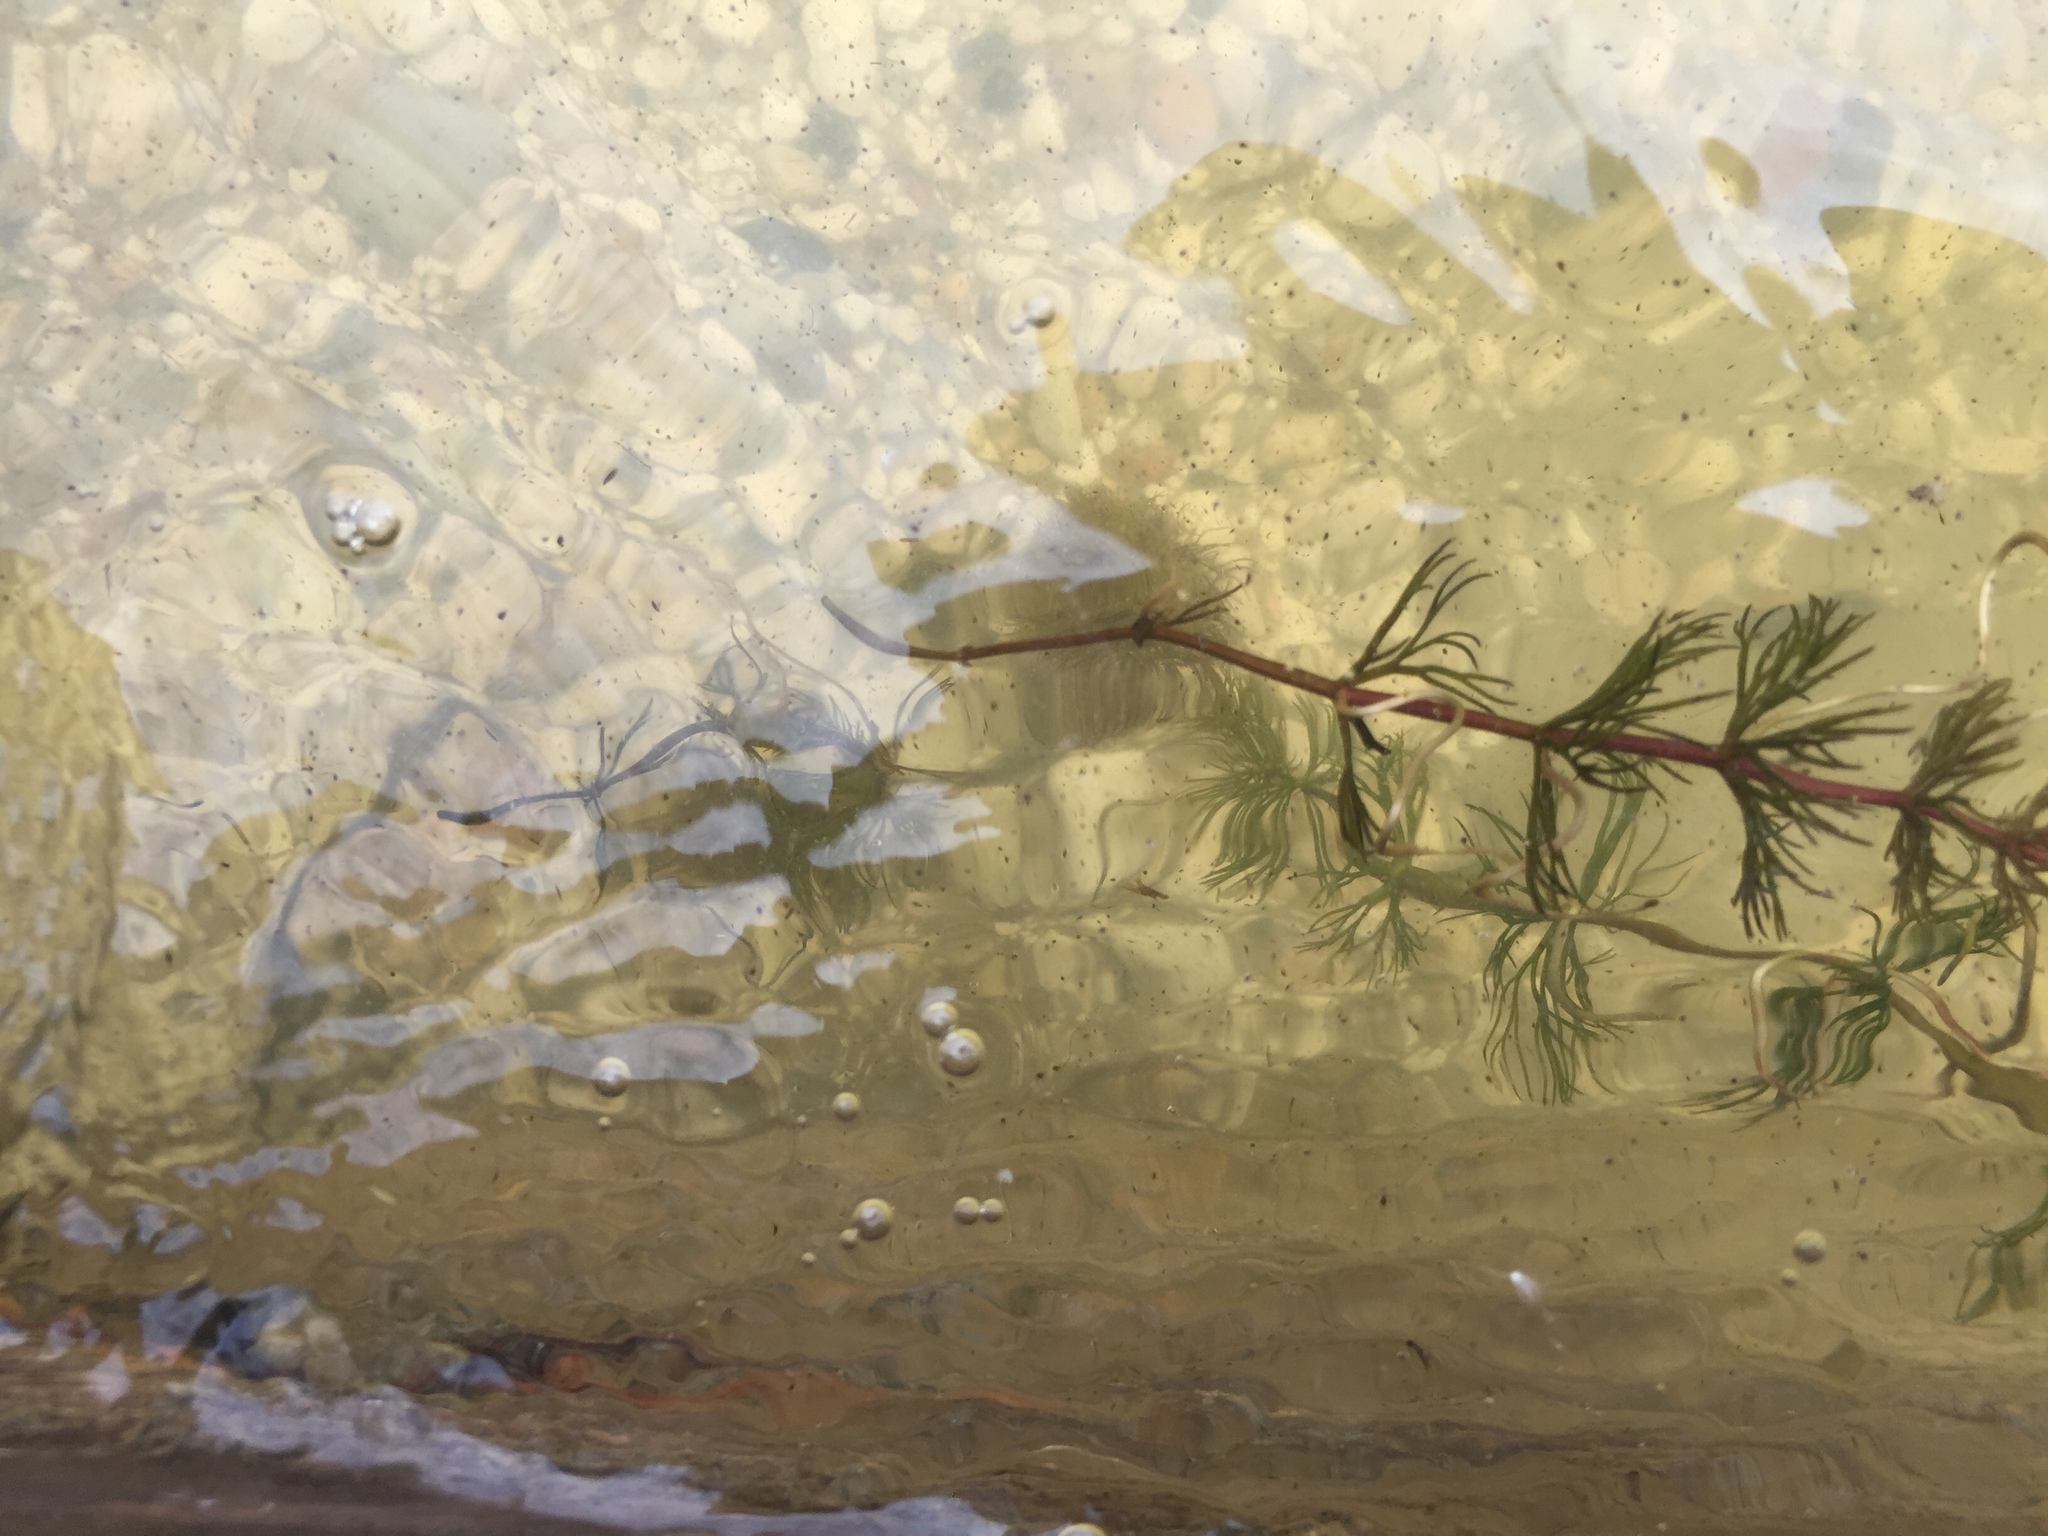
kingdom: Plantae
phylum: Tracheophyta
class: Magnoliopsida
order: Asterales
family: Asteraceae
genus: Bidens
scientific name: Bidens beckii
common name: Beck's beggarticks
